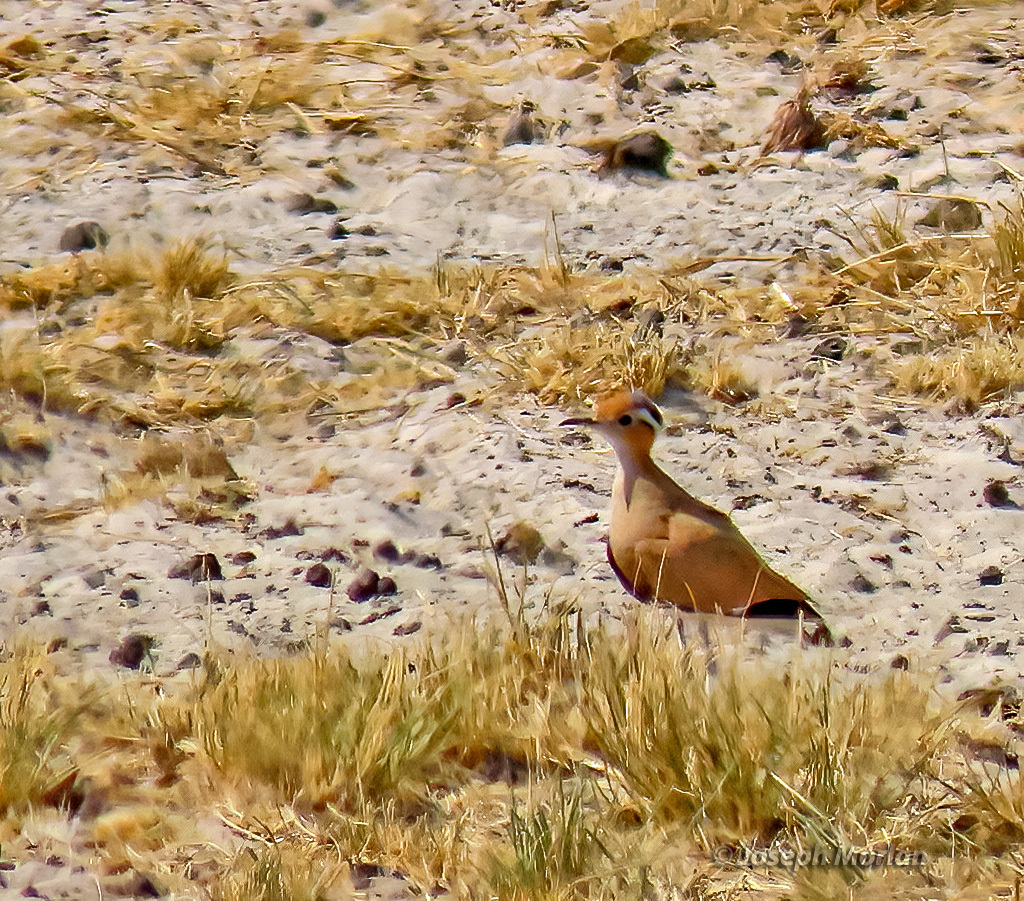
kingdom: Animalia
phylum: Chordata
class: Aves
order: Charadriiformes
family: Glareolidae
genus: Cursorius
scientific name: Cursorius temminckii
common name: Temminck's courser
